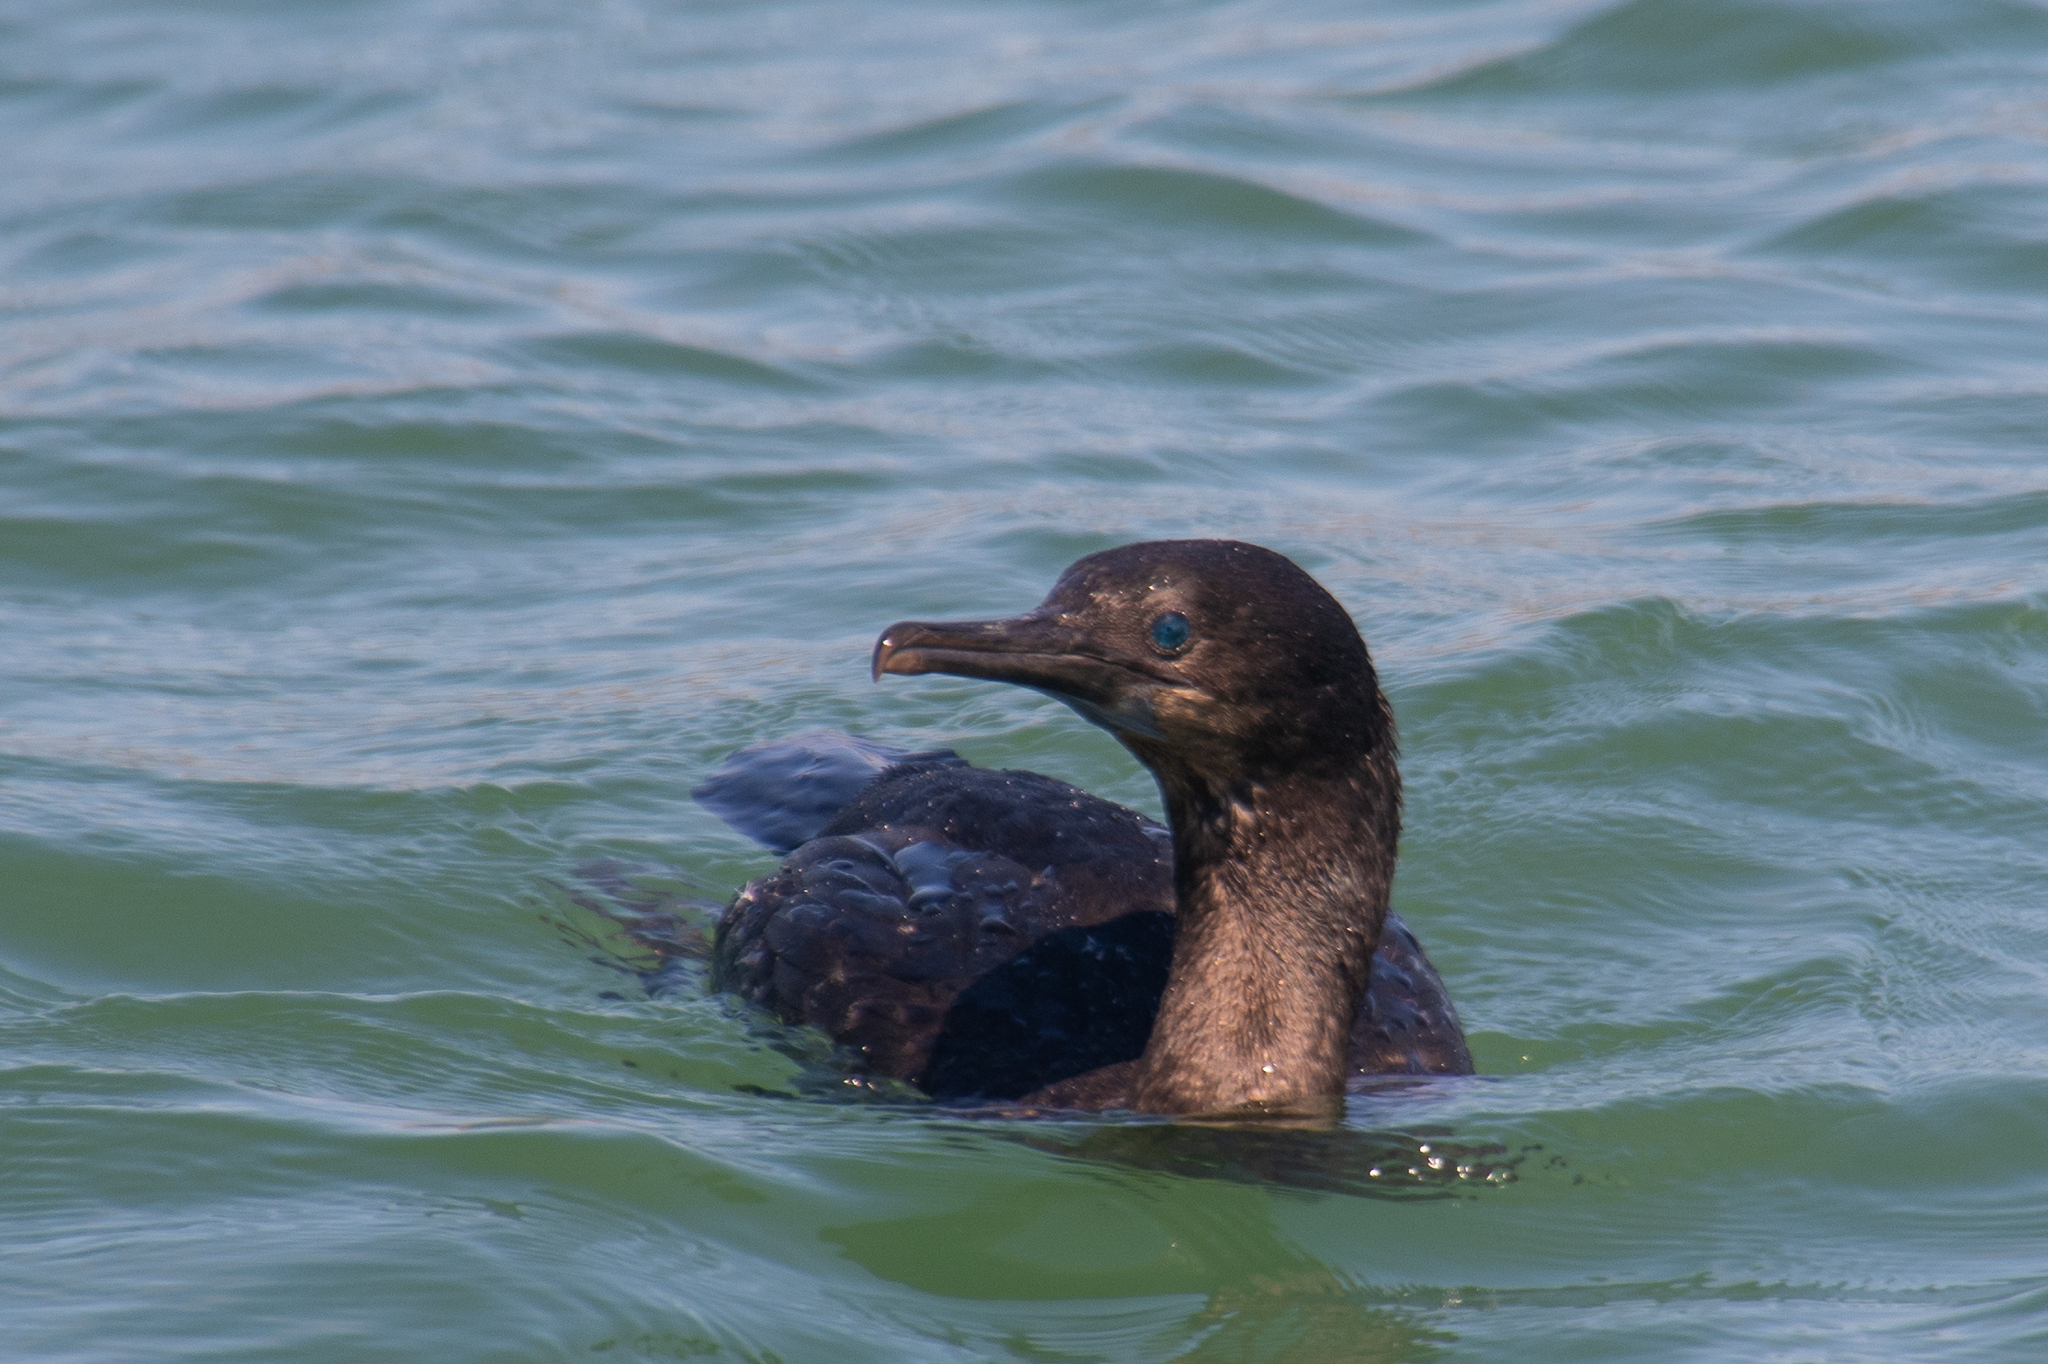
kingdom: Animalia
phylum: Chordata
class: Aves
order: Suliformes
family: Phalacrocoracidae
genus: Urile
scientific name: Urile penicillatus
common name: Brandt's cormorant
